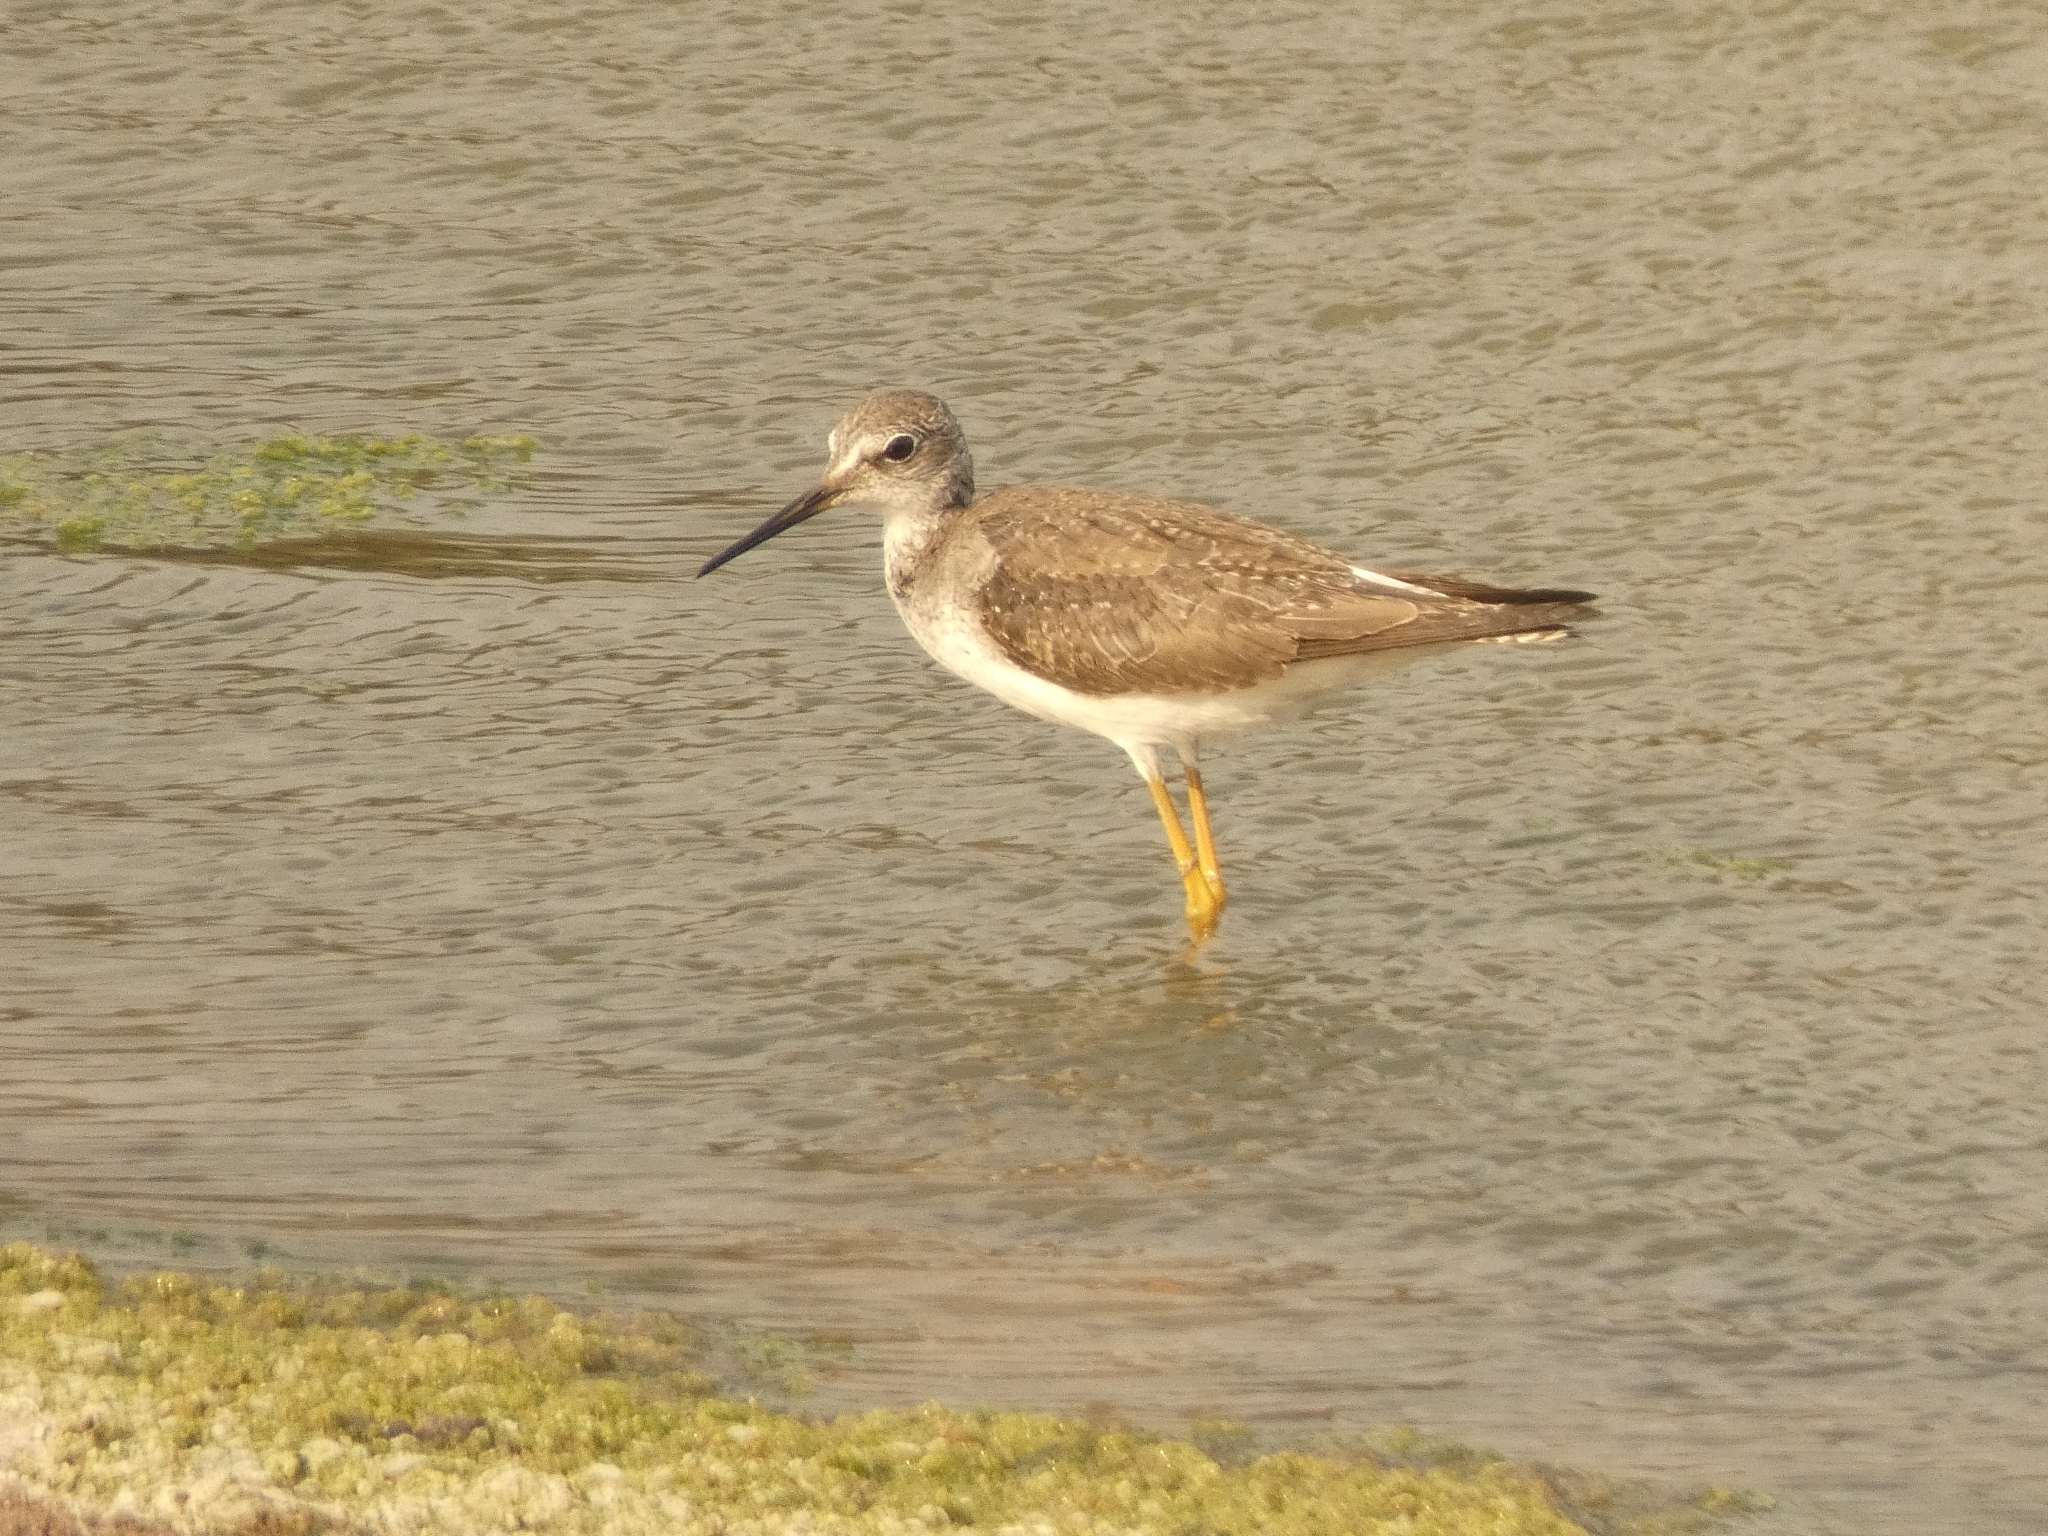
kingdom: Animalia
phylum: Chordata
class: Aves
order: Charadriiformes
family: Scolopacidae
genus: Tringa
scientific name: Tringa melanoleuca
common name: Greater yellowlegs
